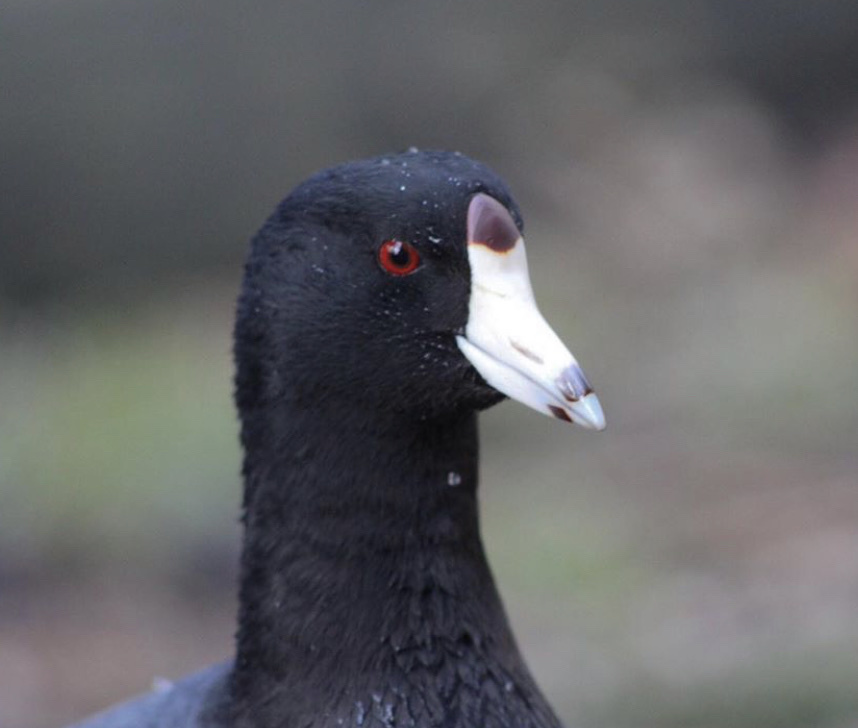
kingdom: Animalia
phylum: Chordata
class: Aves
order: Gruiformes
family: Rallidae
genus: Fulica
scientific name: Fulica americana
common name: American coot
